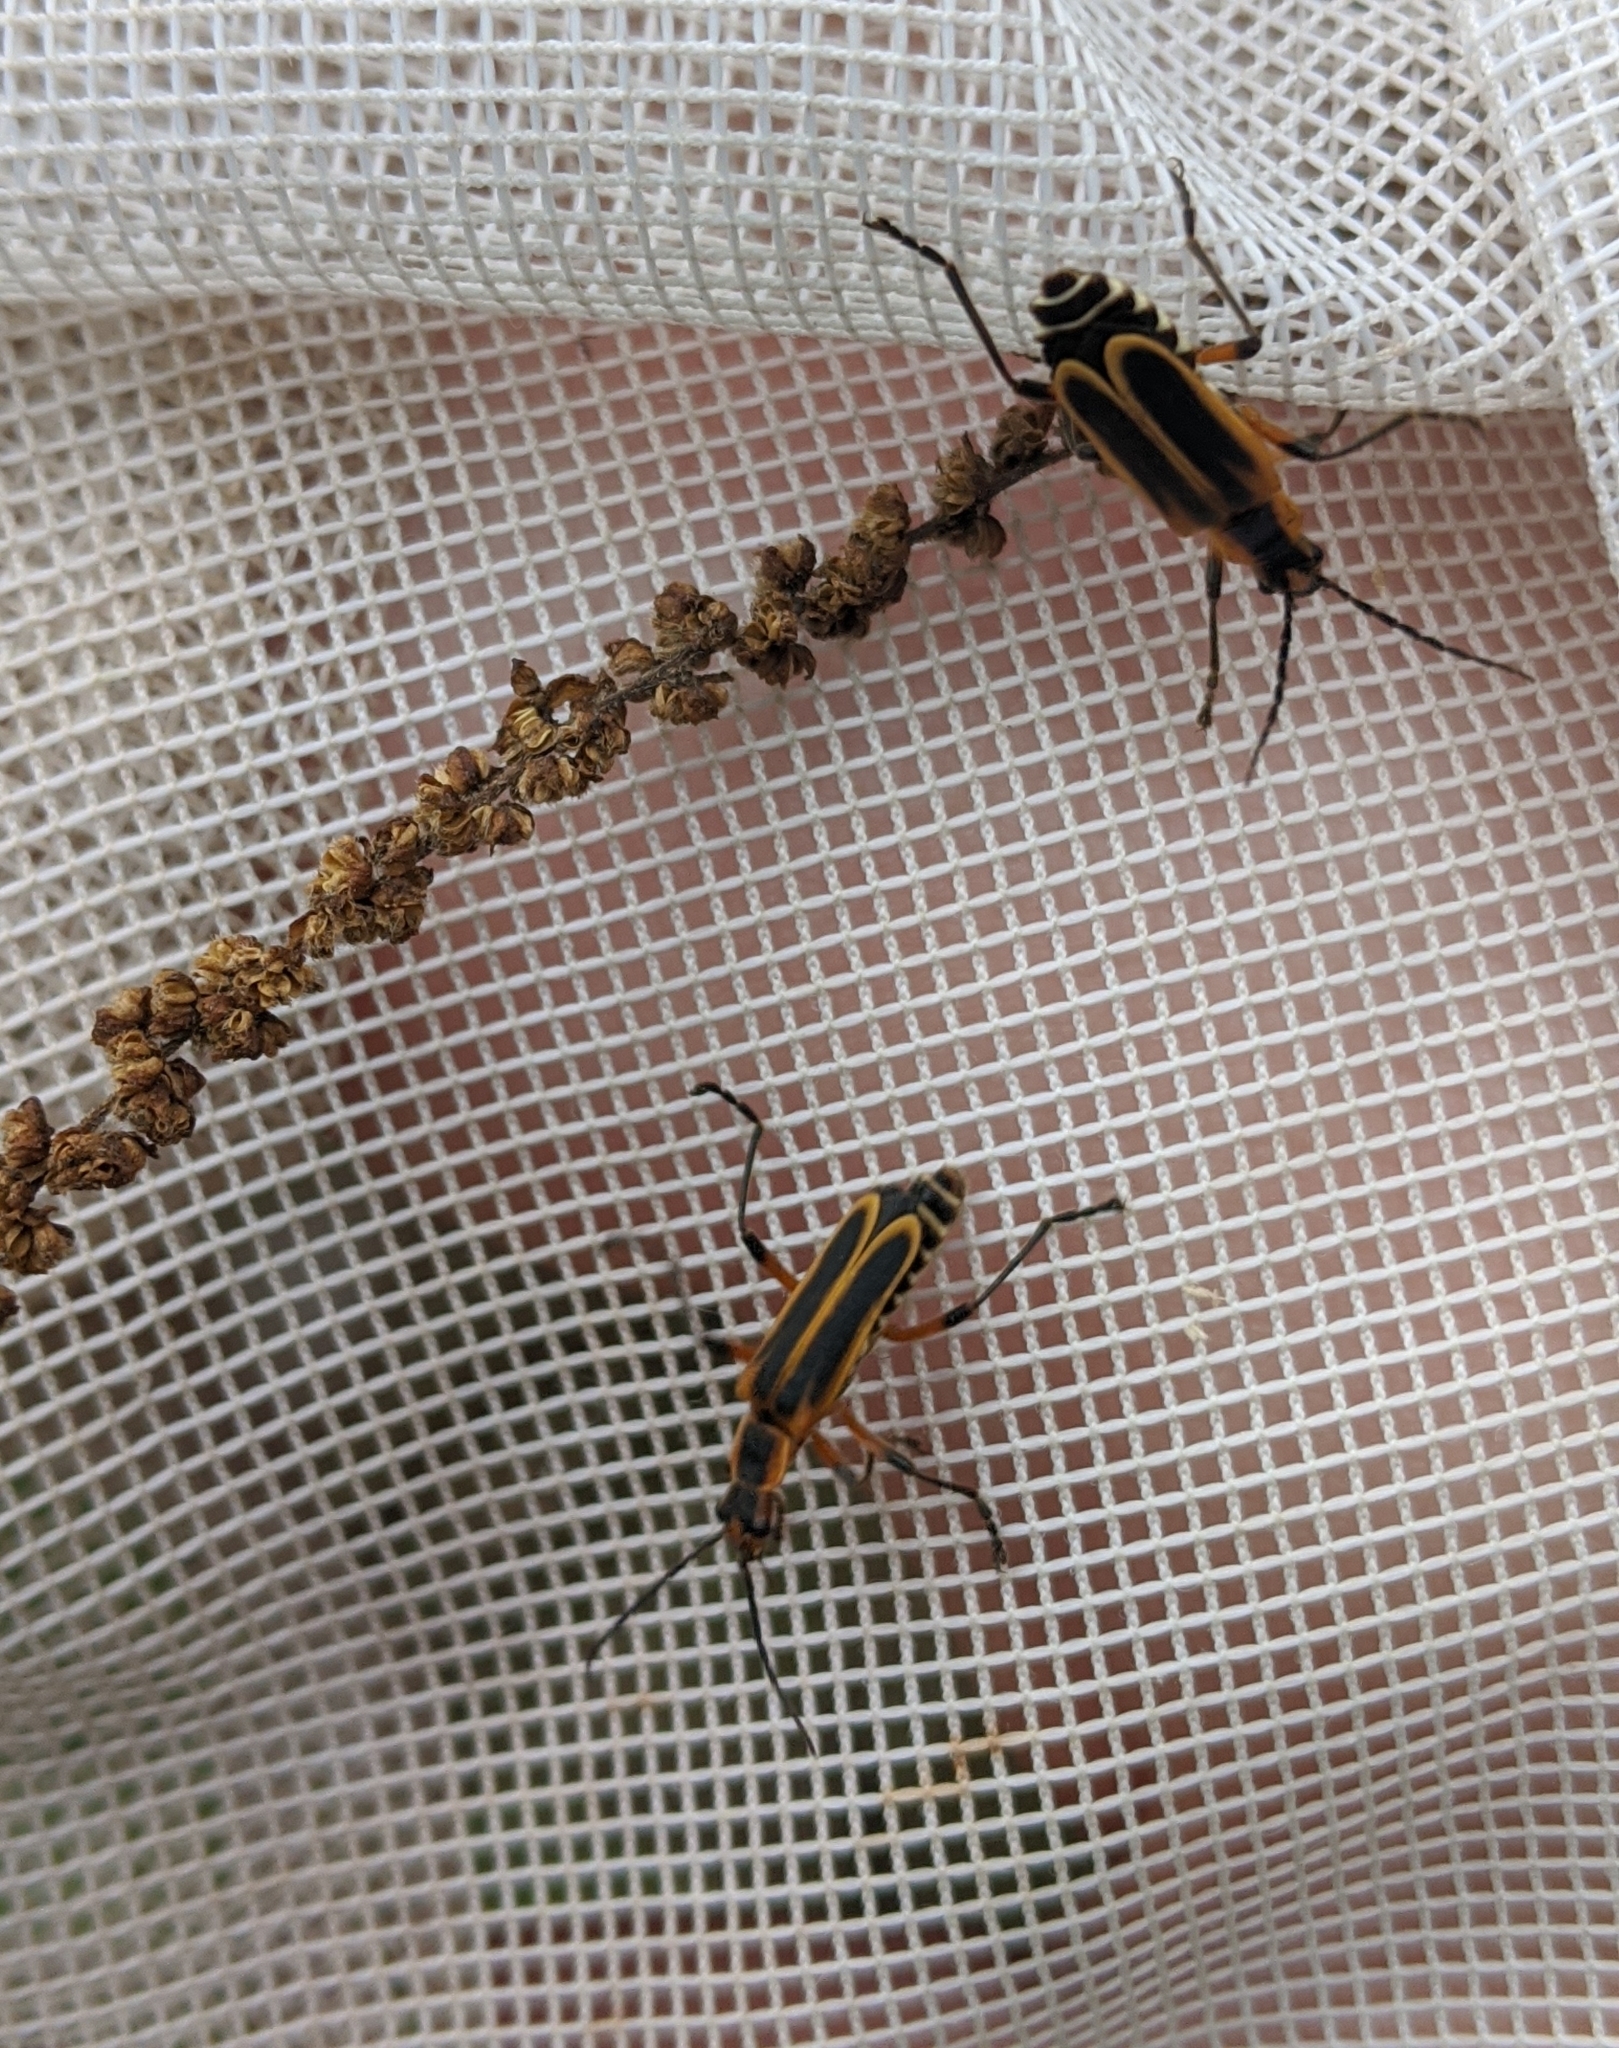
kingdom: Animalia
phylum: Arthropoda
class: Insecta
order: Coleoptera
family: Cantharidae
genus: Chauliognathus
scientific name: Chauliognathus marginatus
